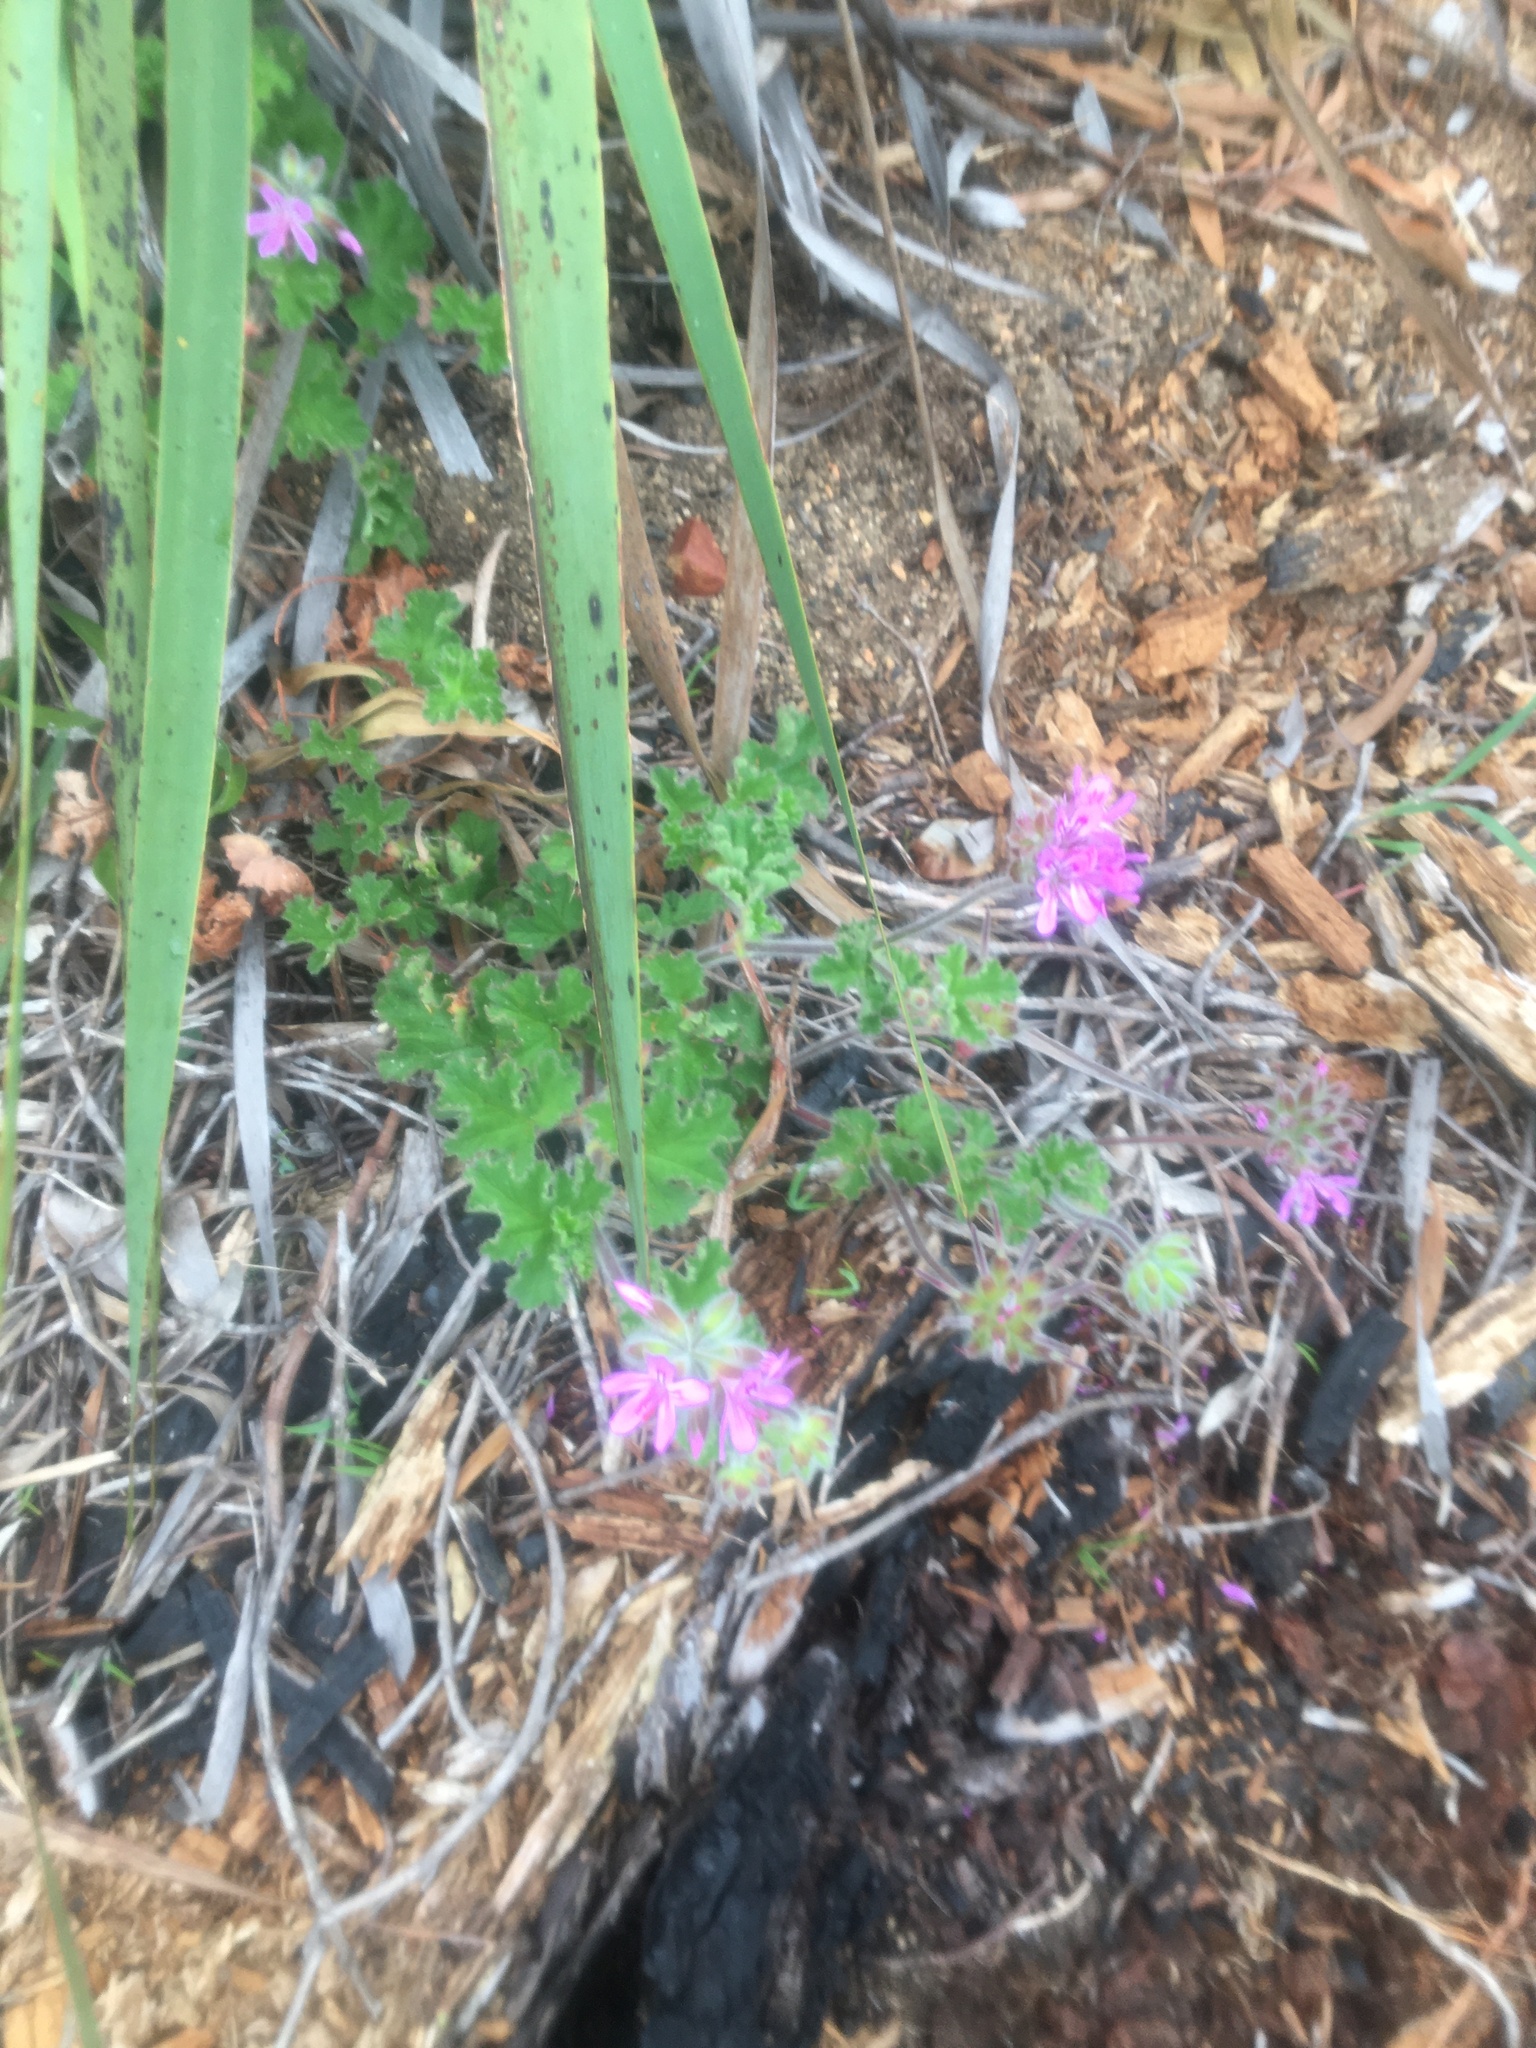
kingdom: Plantae
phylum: Tracheophyta
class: Magnoliopsida
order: Geraniales
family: Geraniaceae
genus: Pelargonium
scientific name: Pelargonium capitatum
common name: Rose scented geranium
